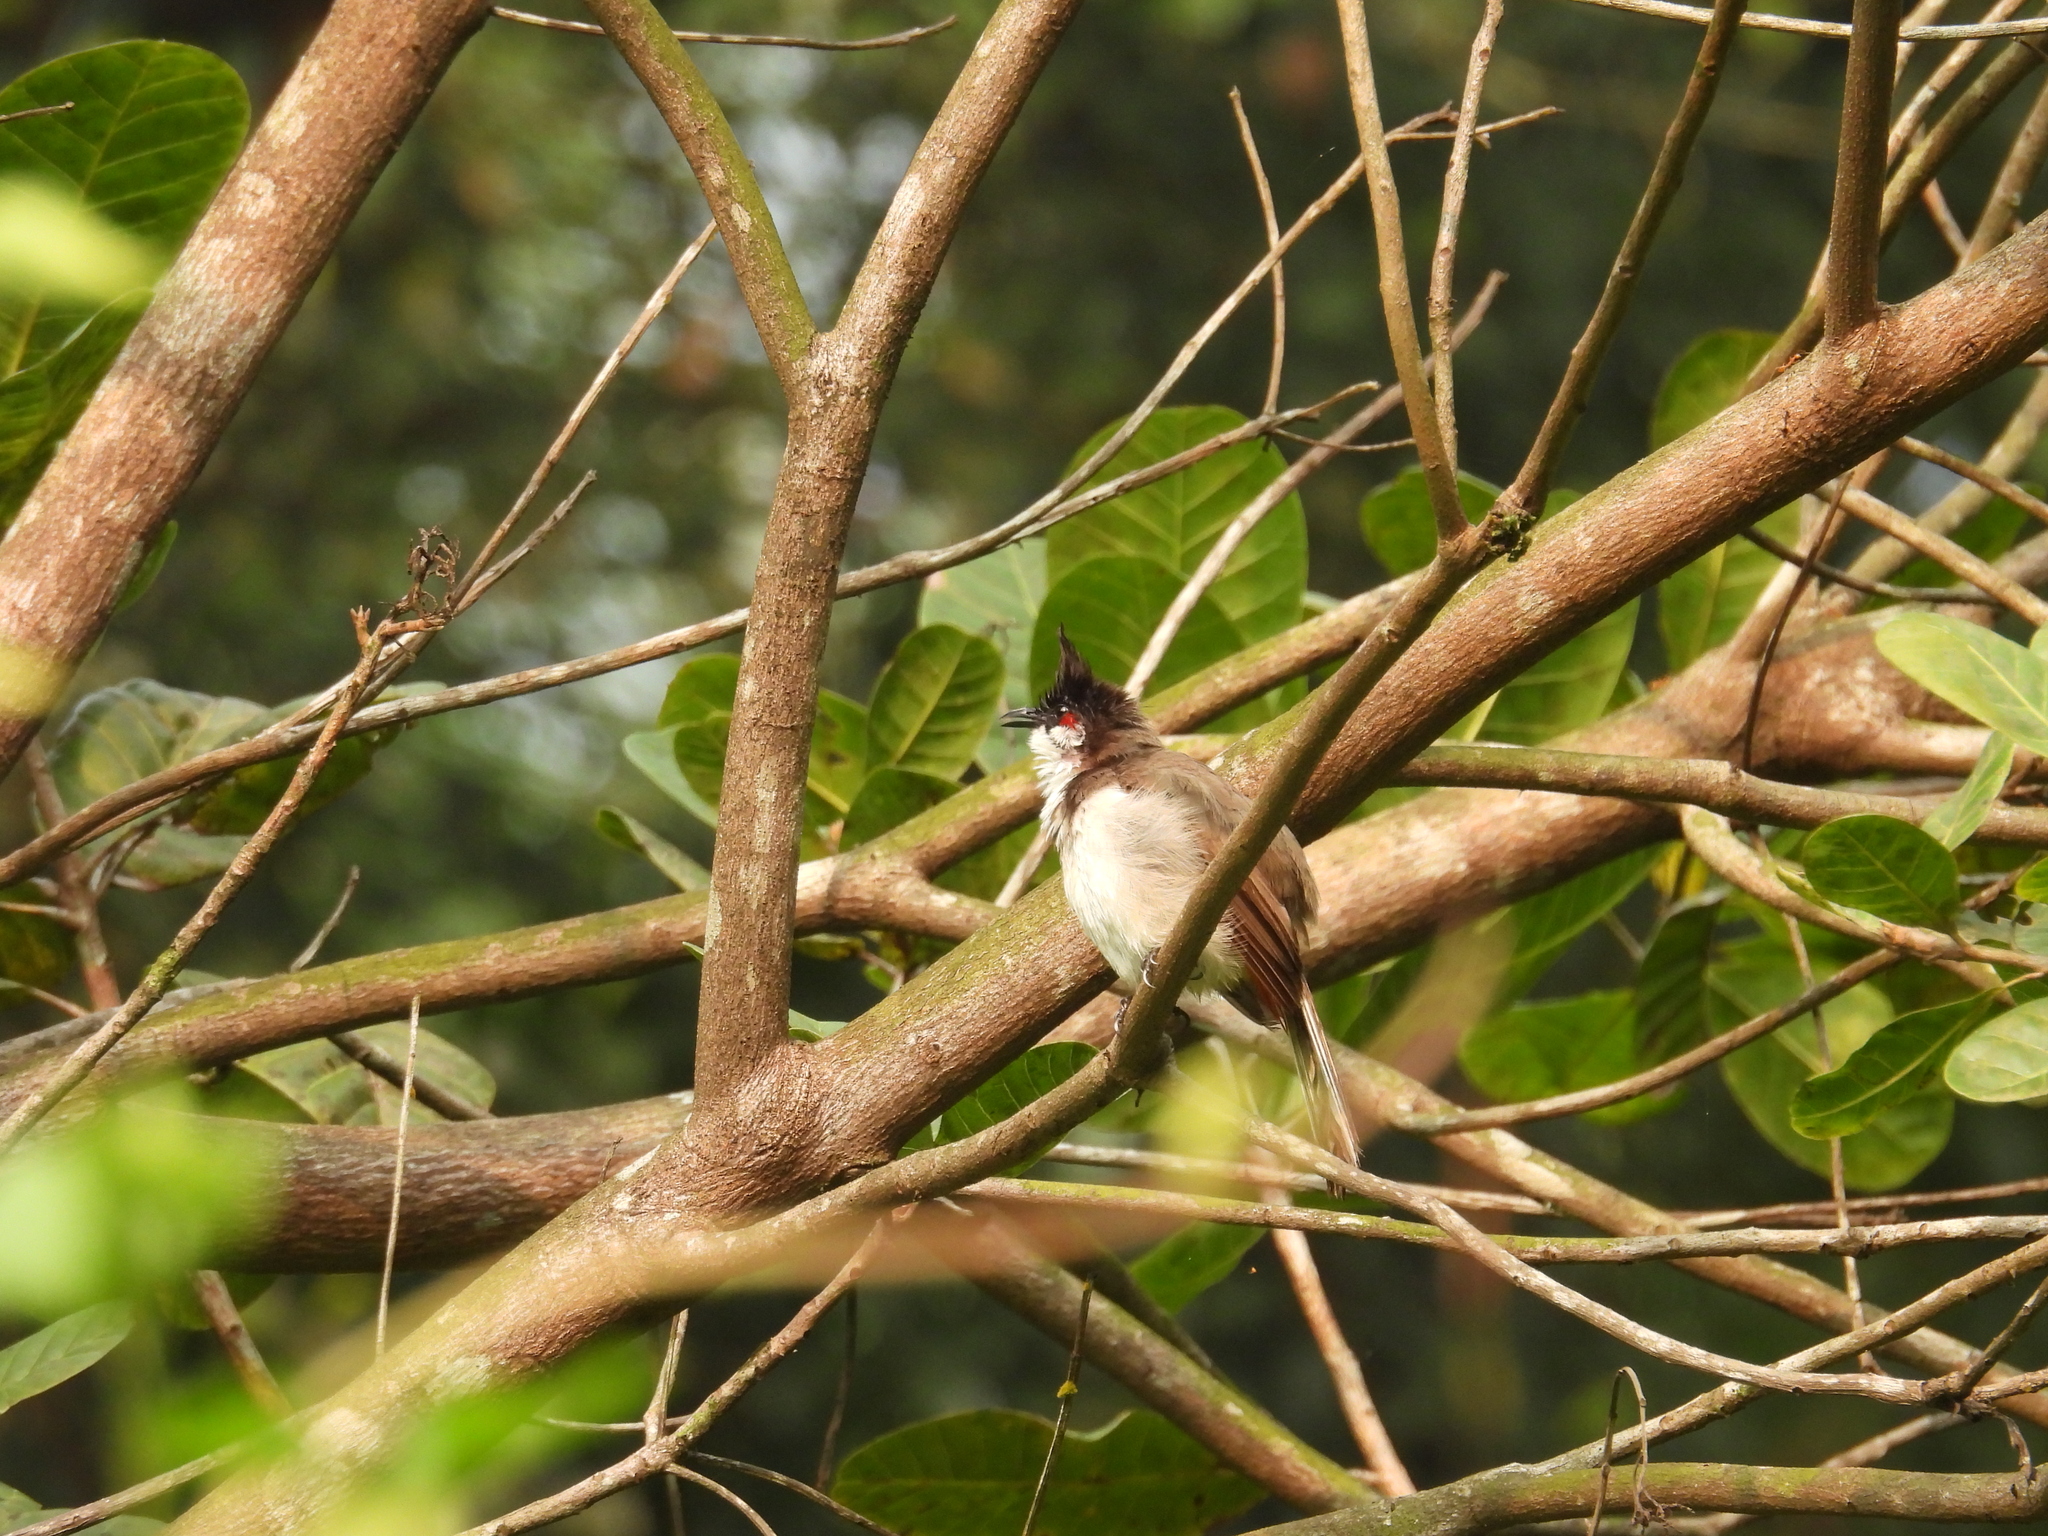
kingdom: Animalia
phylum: Chordata
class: Aves
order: Passeriformes
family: Pycnonotidae
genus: Pycnonotus
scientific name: Pycnonotus jocosus
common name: Red-whiskered bulbul
